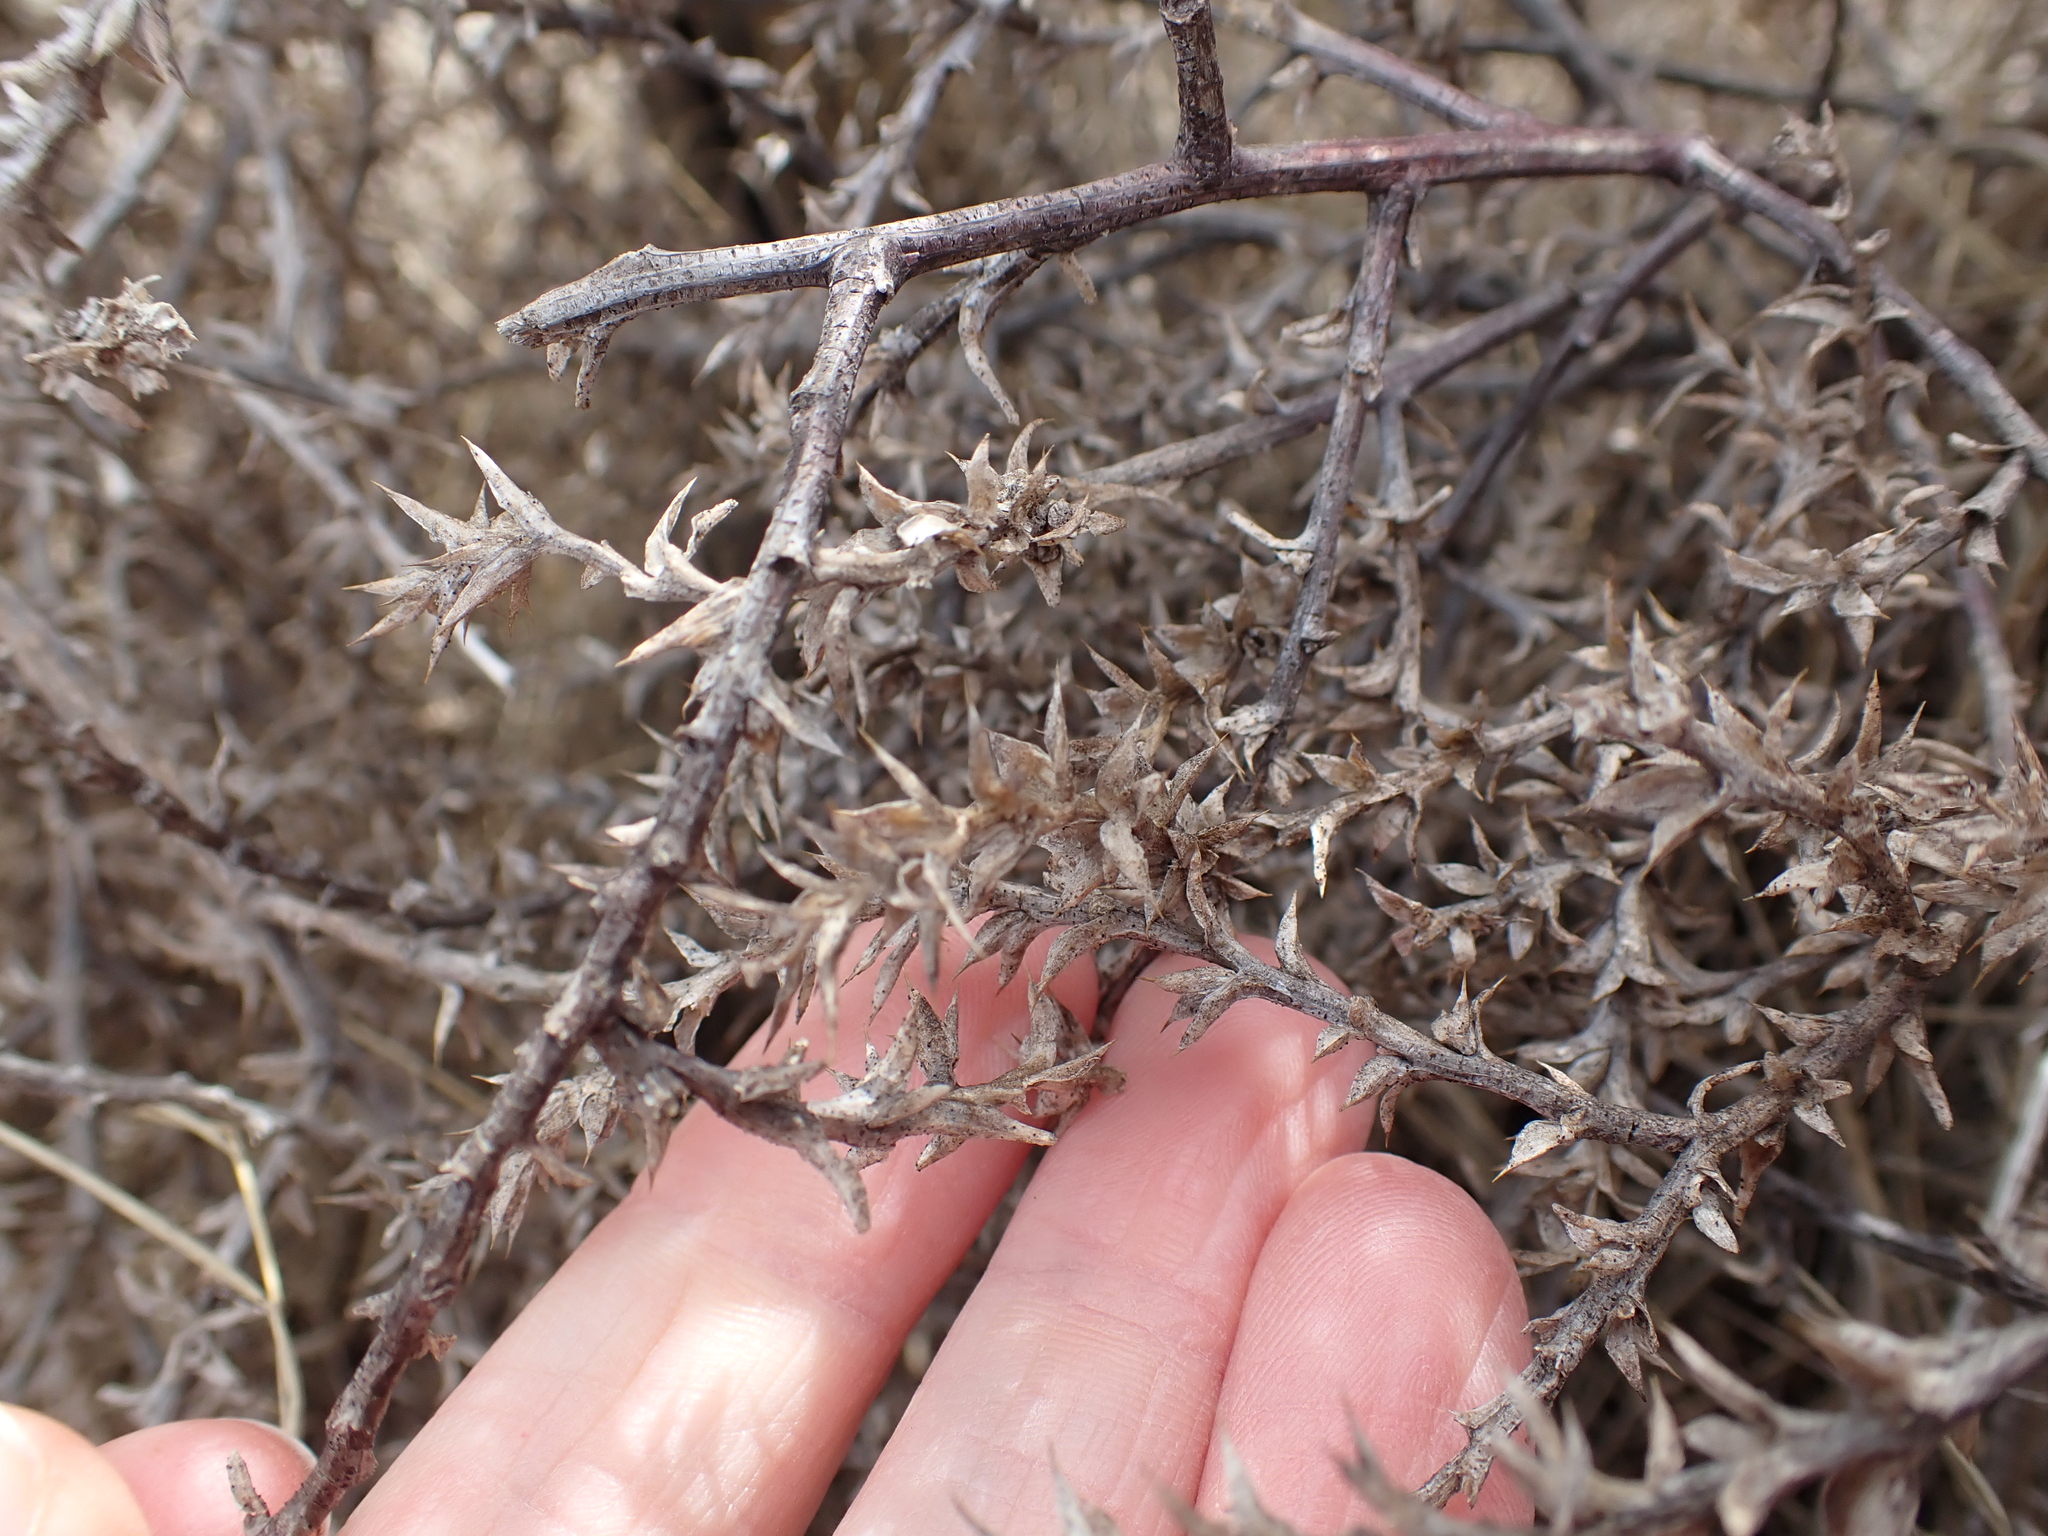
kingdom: Plantae
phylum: Tracheophyta
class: Magnoliopsida
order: Caryophyllales
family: Amaranthaceae
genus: Salsola
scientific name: Salsola tragus
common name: Prickly russian thistle
